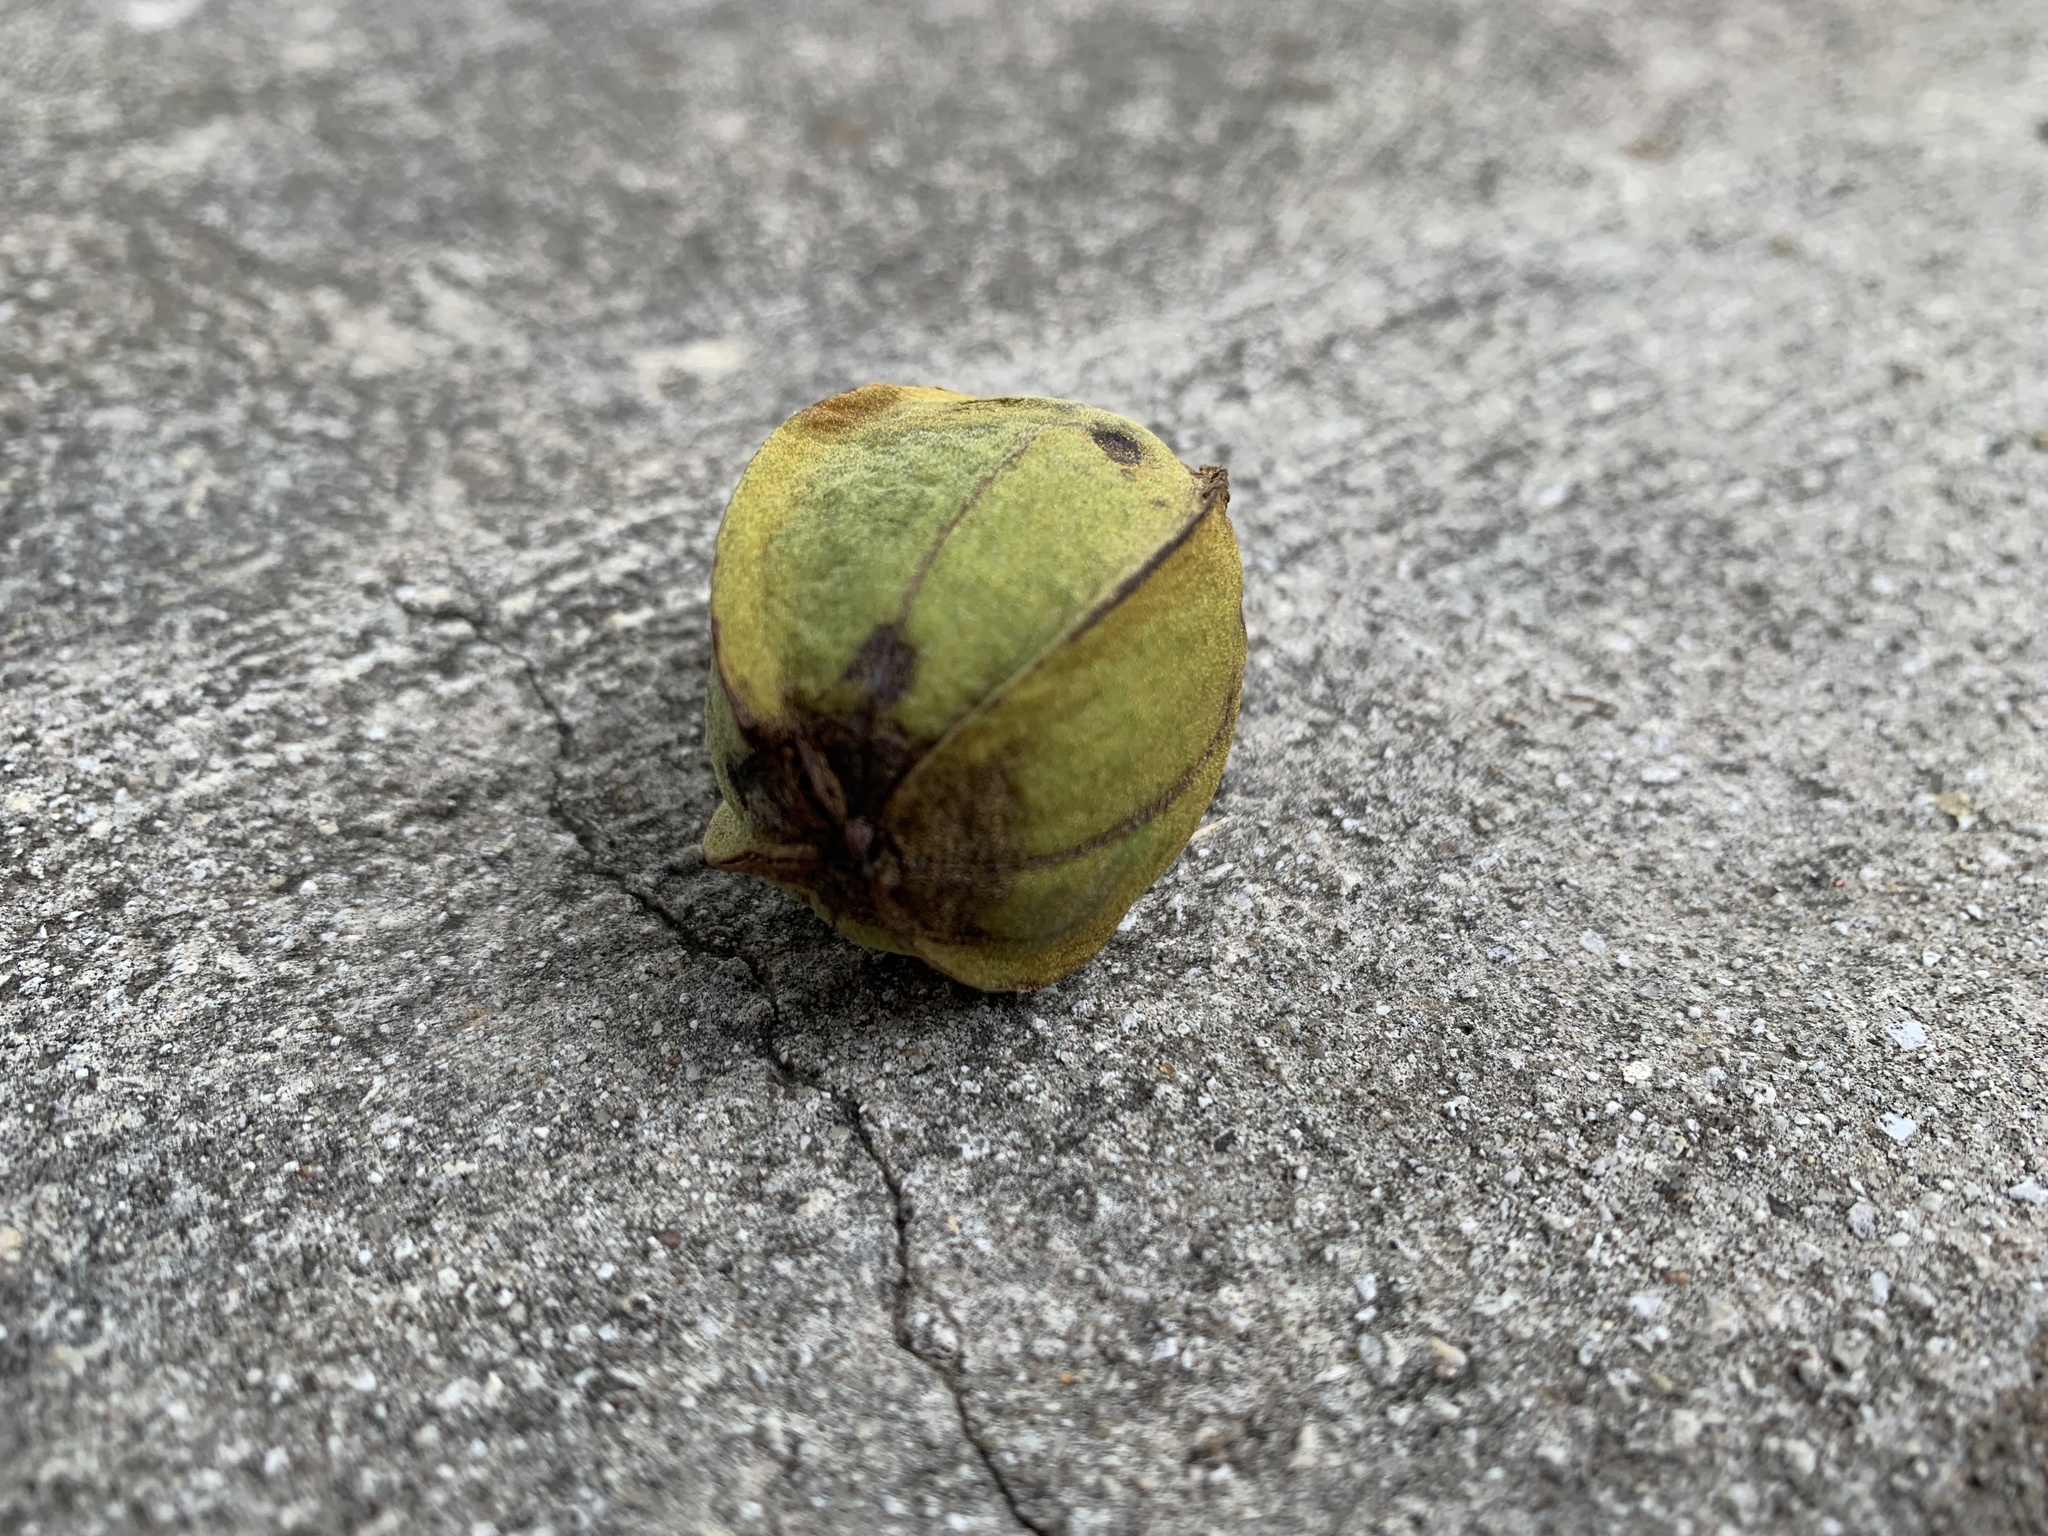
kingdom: Plantae
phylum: Tracheophyta
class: Magnoliopsida
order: Fagales
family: Juglandaceae
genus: Carya
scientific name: Carya illinoinensis
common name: Pecan
